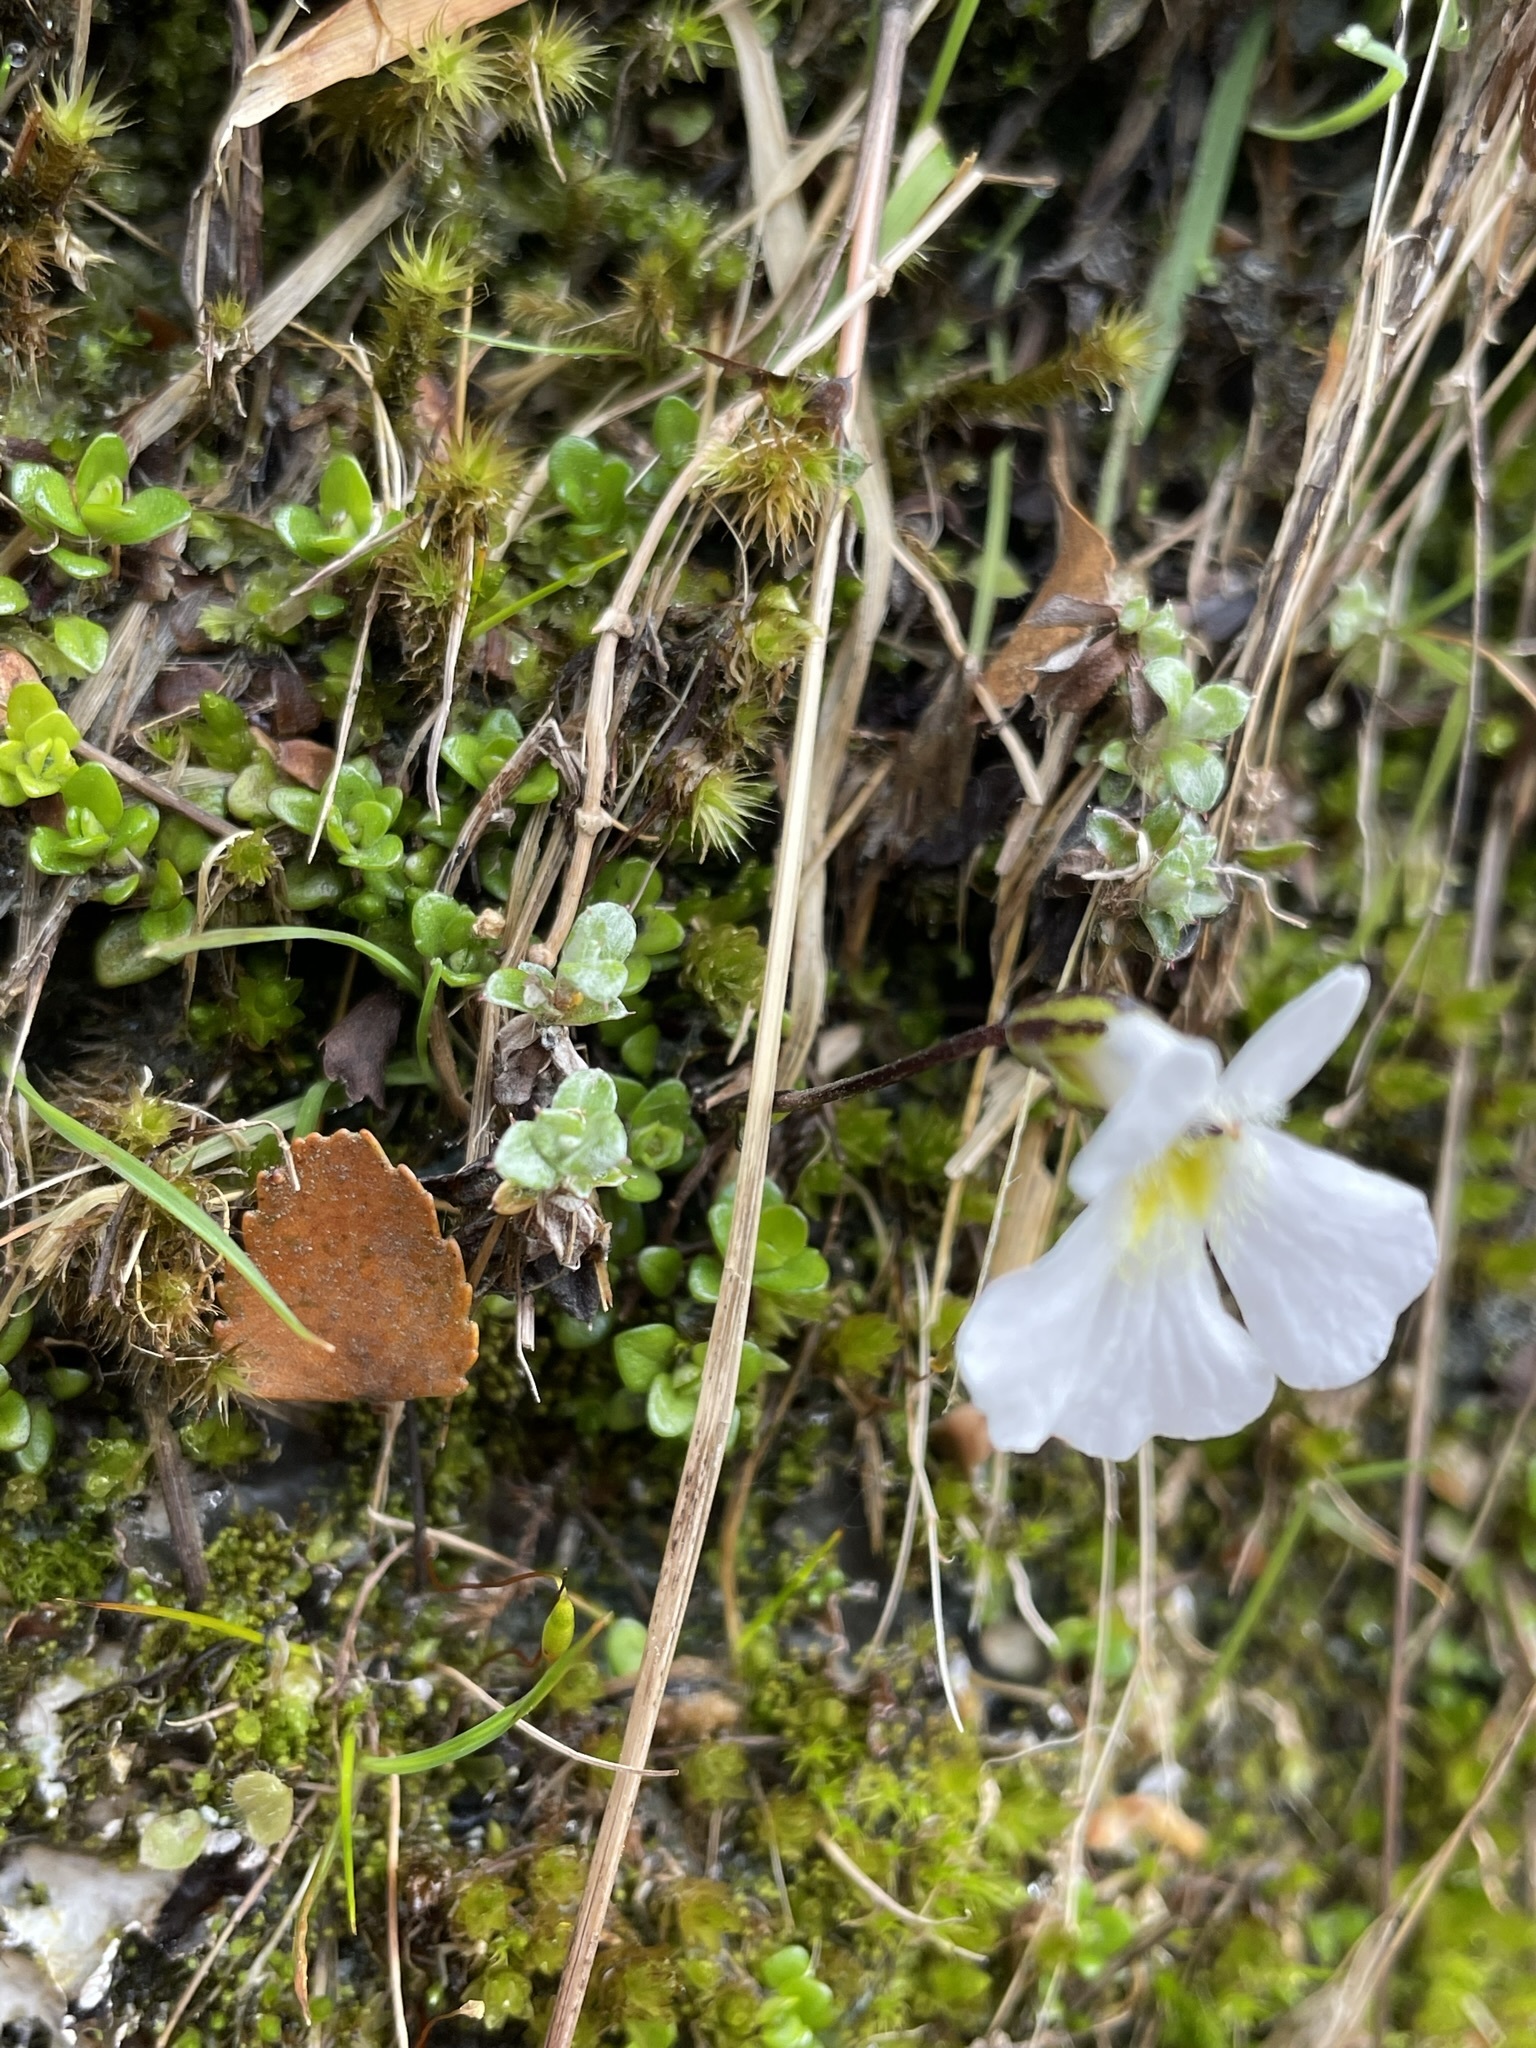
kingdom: Plantae
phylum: Tracheophyta
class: Magnoliopsida
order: Lamiales
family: Plantaginaceae
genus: Ourisia
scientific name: Ourisia caespitosa
